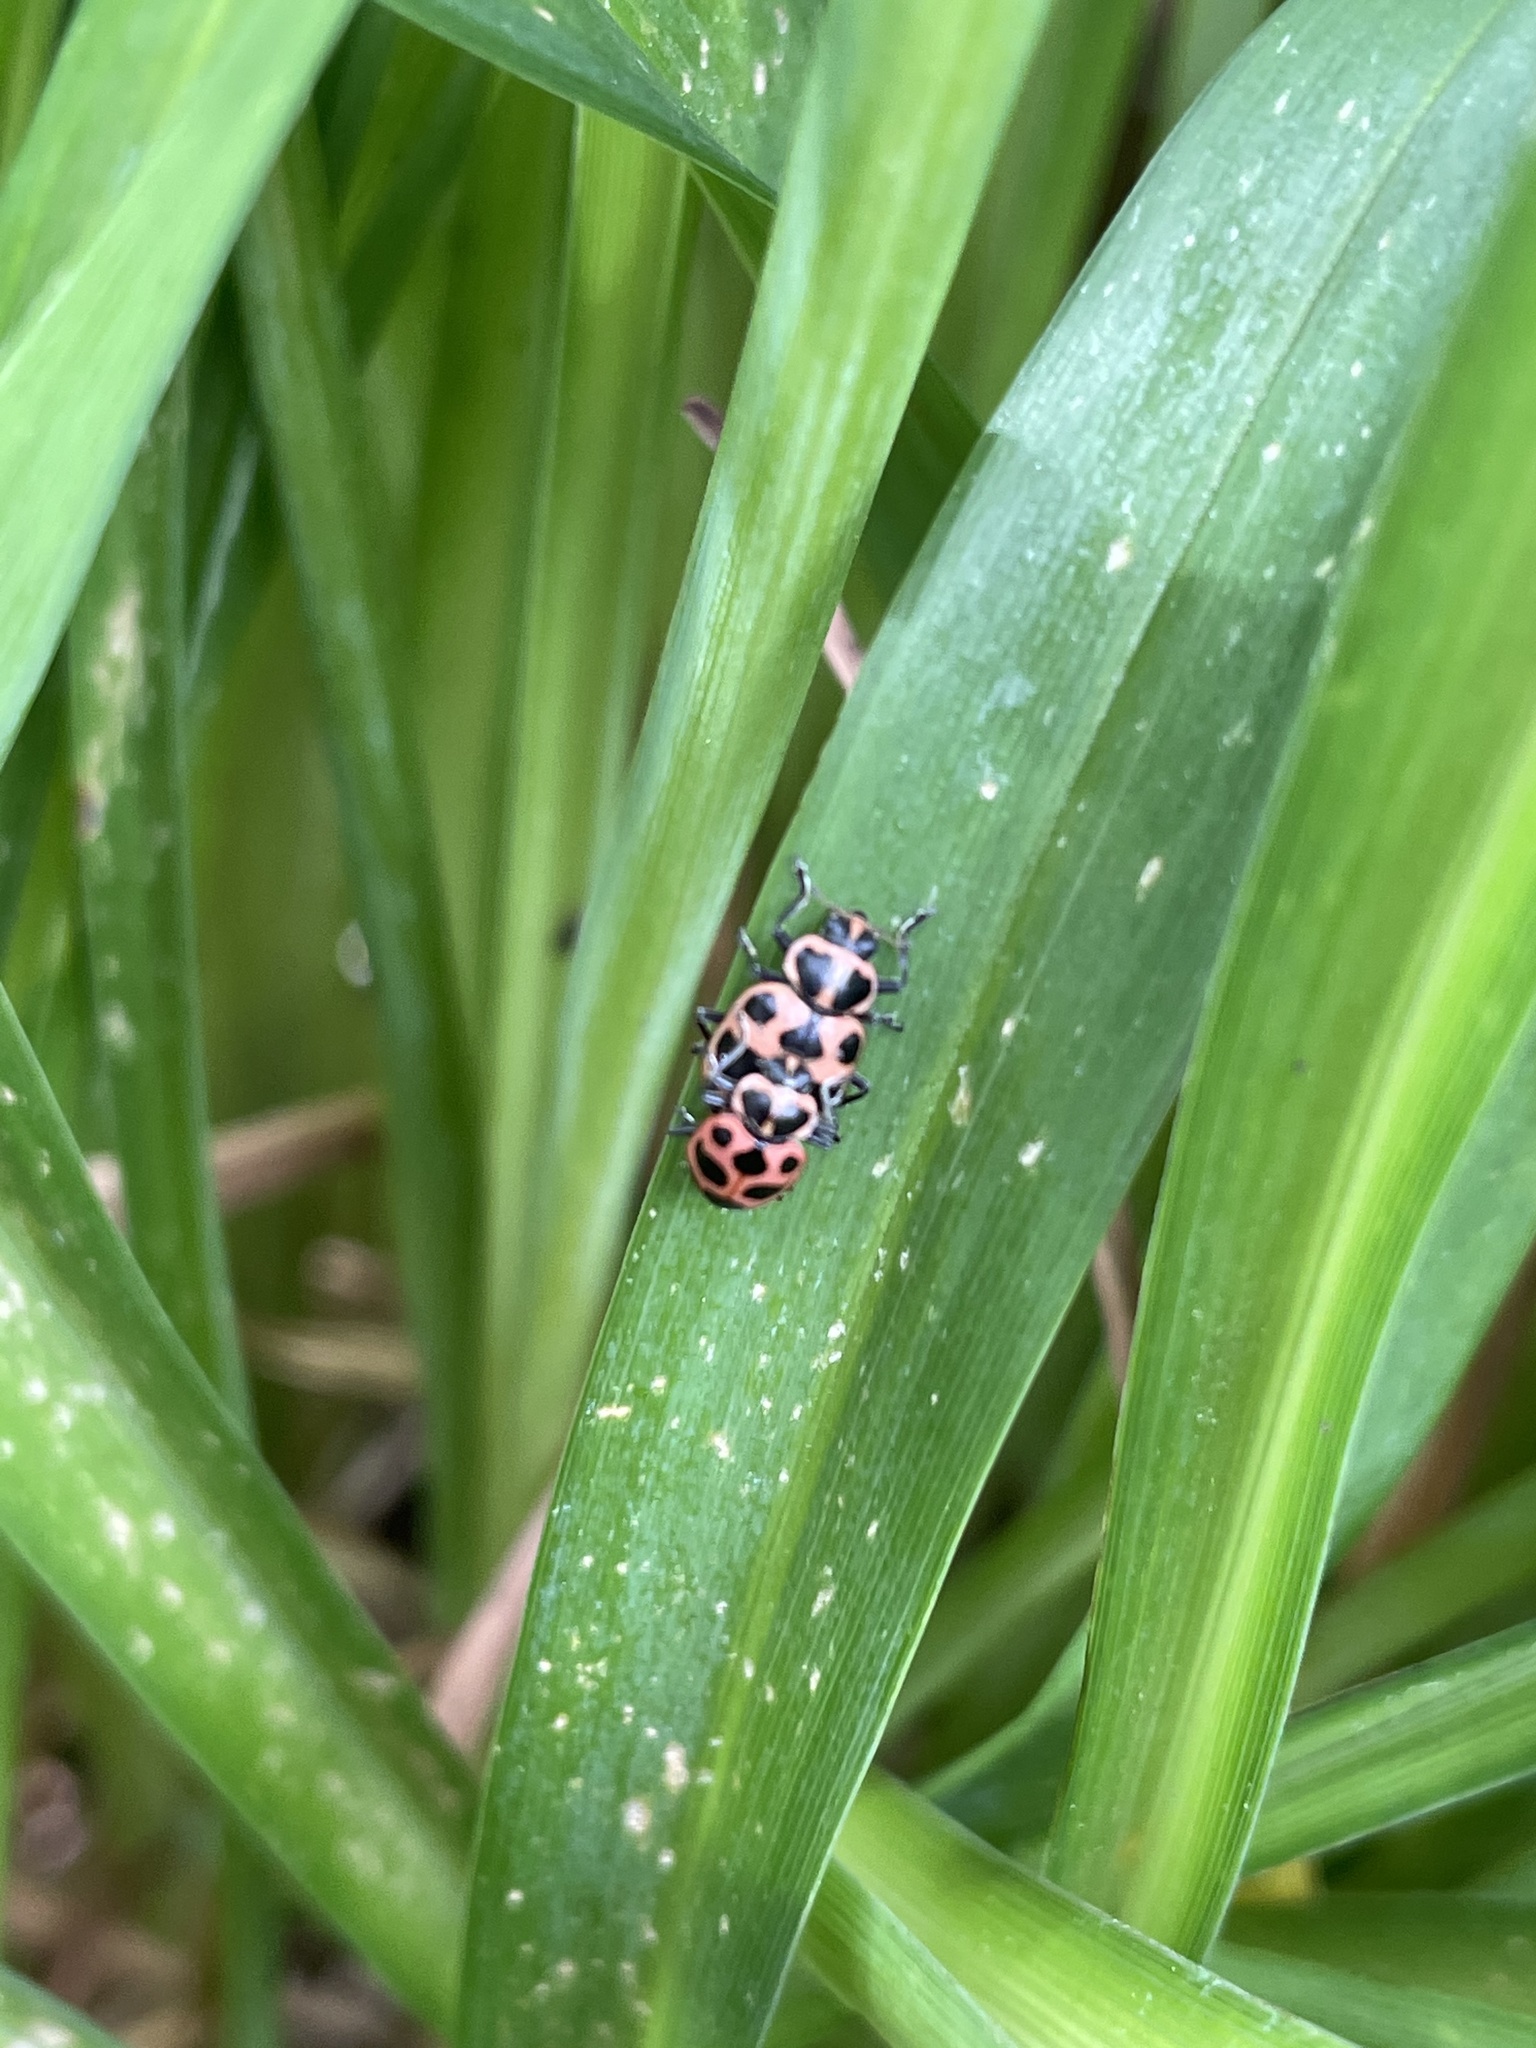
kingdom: Animalia
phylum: Arthropoda
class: Insecta
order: Coleoptera
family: Coccinellidae
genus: Coleomegilla
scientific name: Coleomegilla maculata
